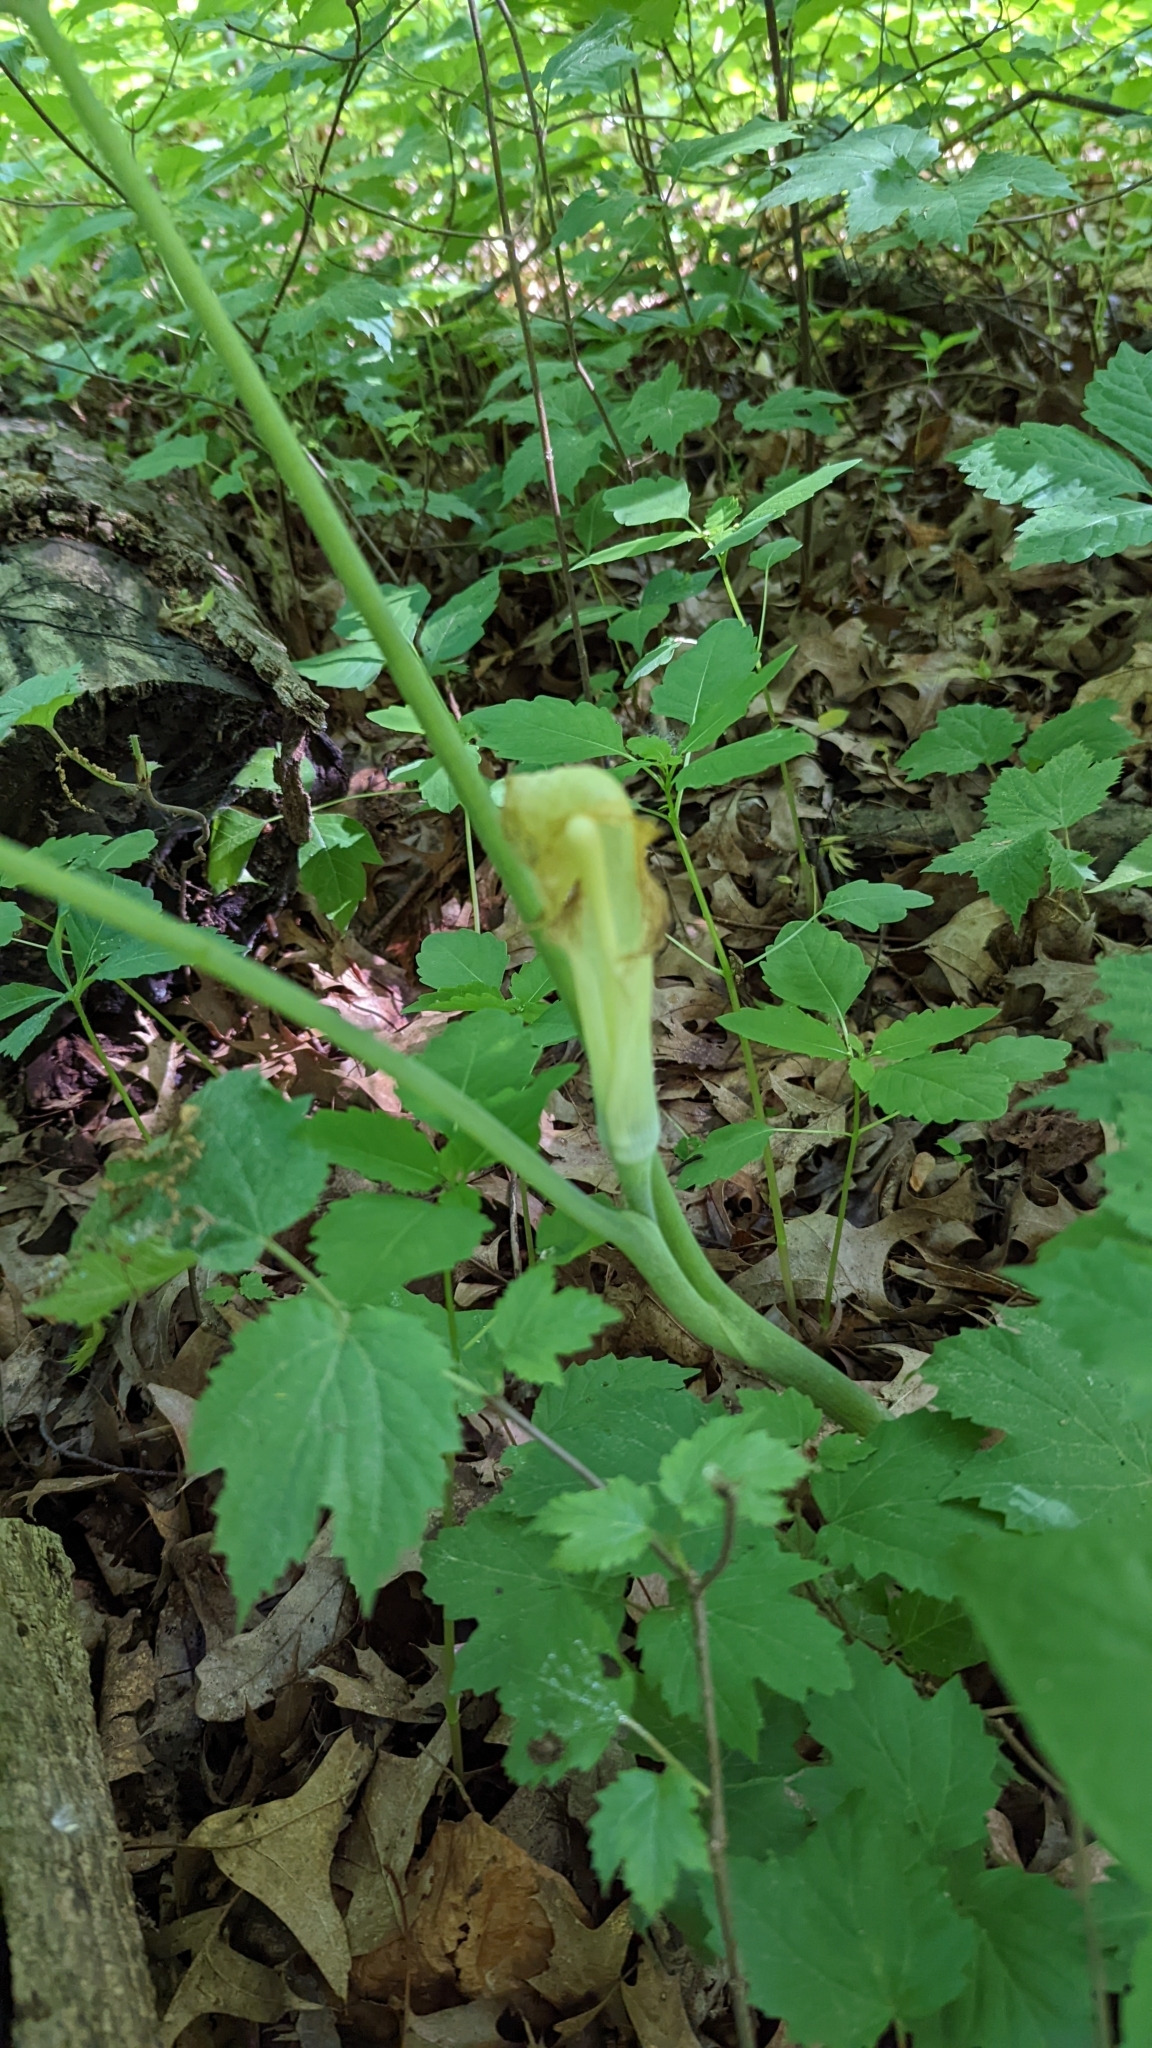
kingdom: Plantae
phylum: Tracheophyta
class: Liliopsida
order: Alismatales
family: Araceae
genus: Arisaema
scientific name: Arisaema triphyllum
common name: Jack-in-the-pulpit
